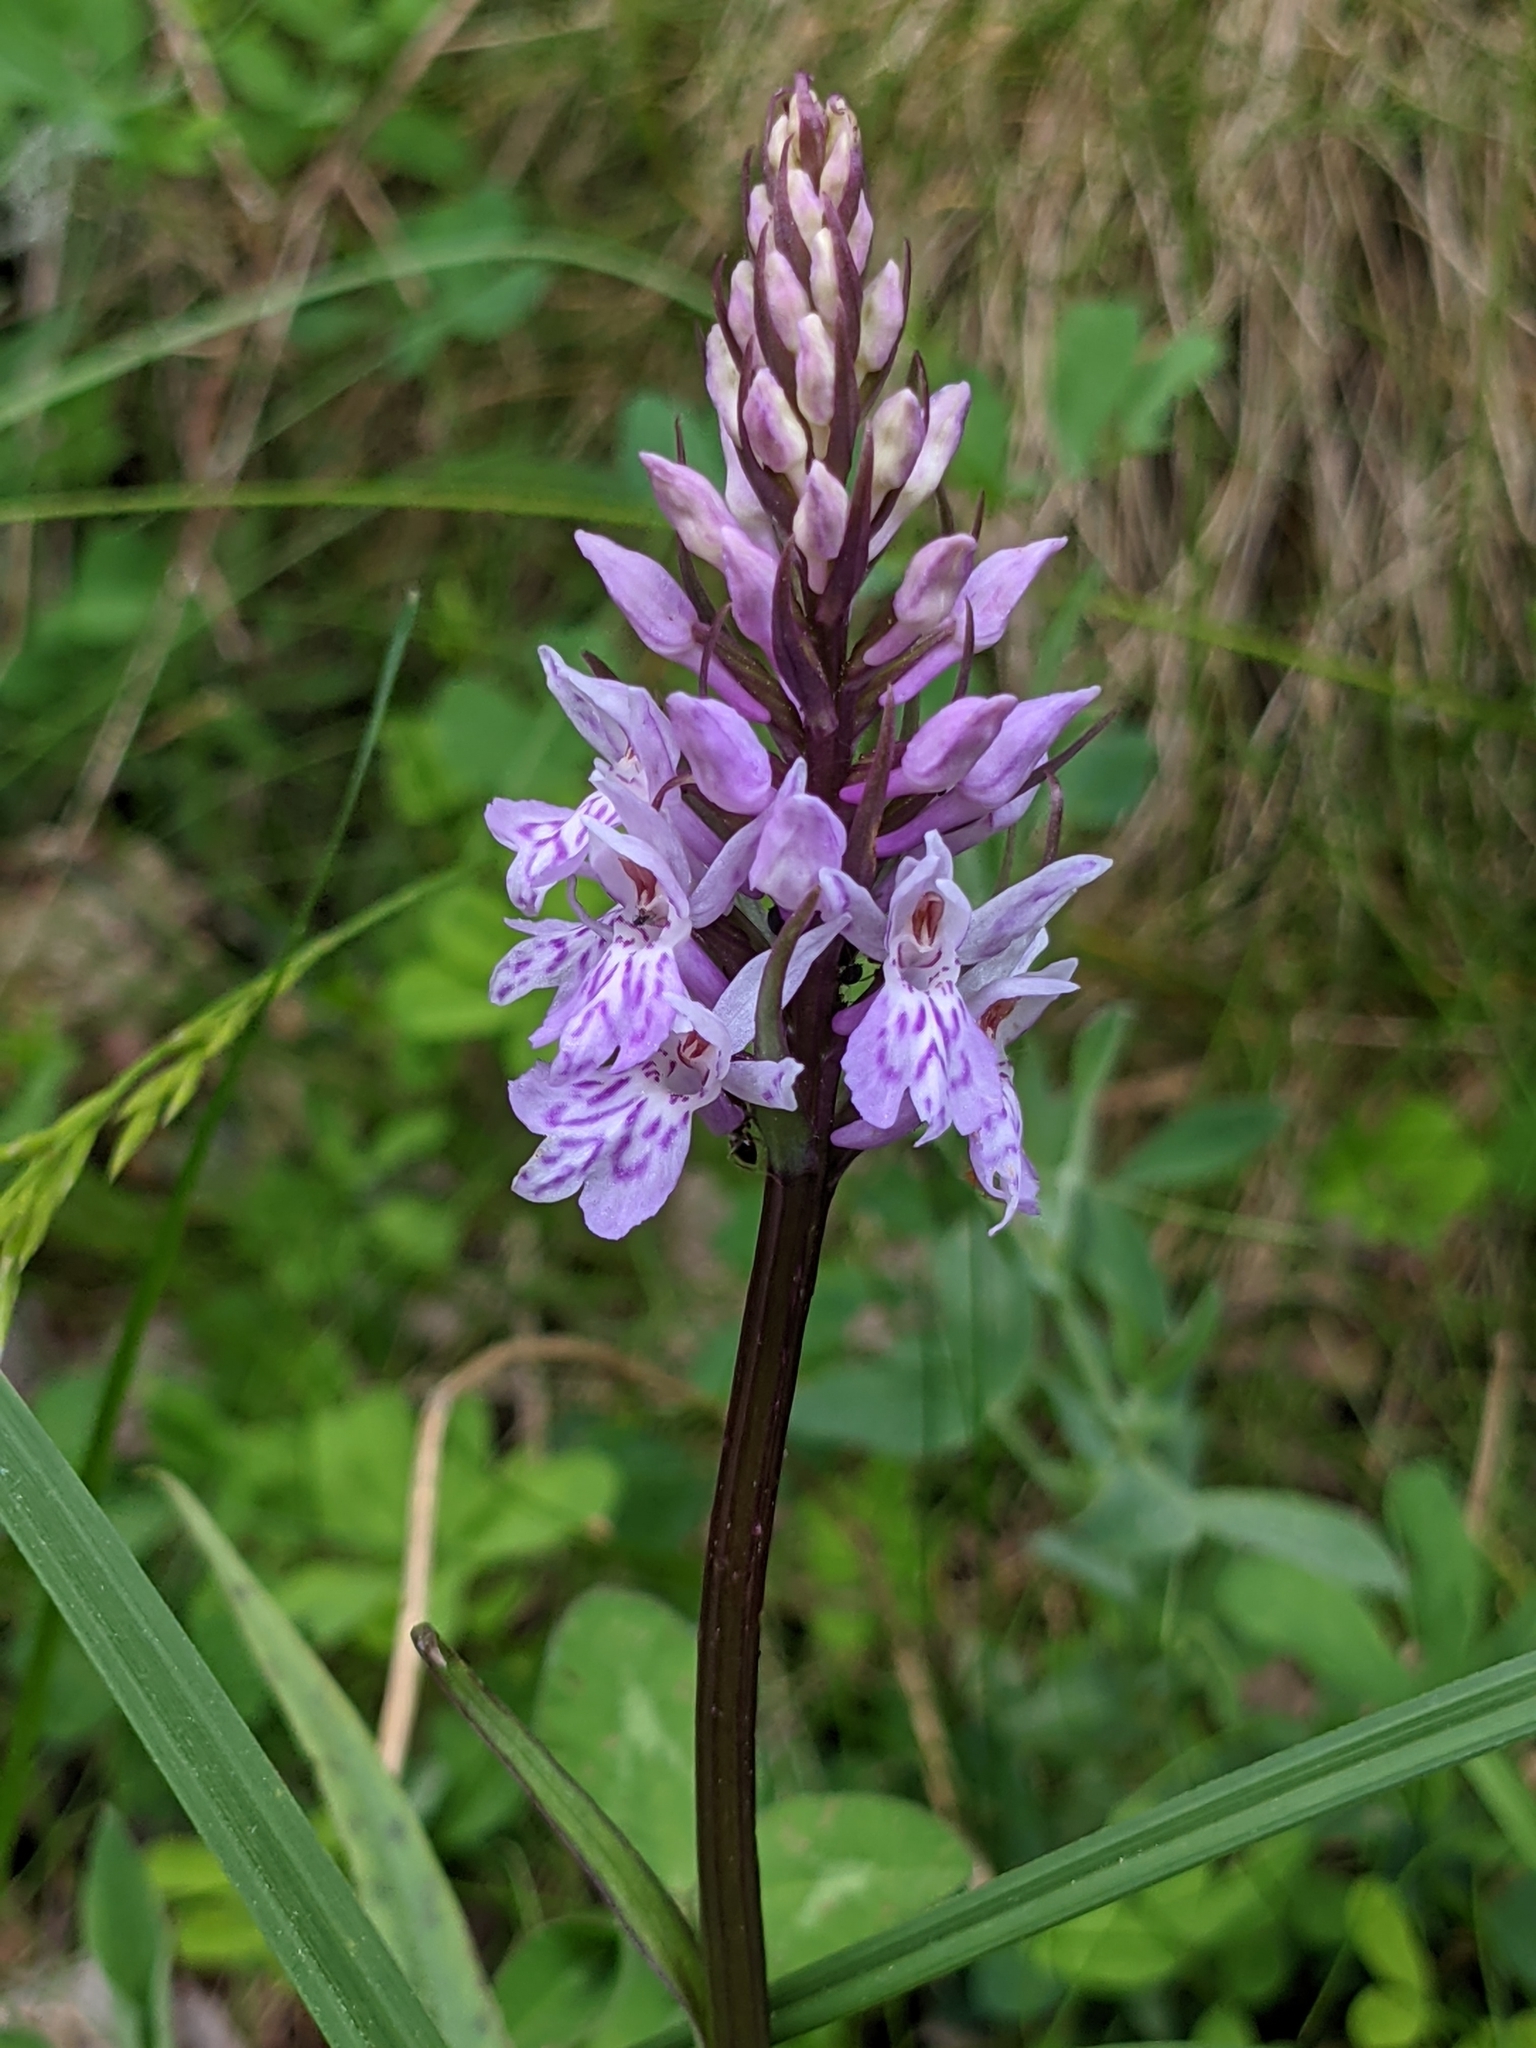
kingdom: Plantae
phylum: Tracheophyta
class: Liliopsida
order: Asparagales
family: Orchidaceae
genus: Dactylorhiza
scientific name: Dactylorhiza maculata
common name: Heath spotted-orchid
